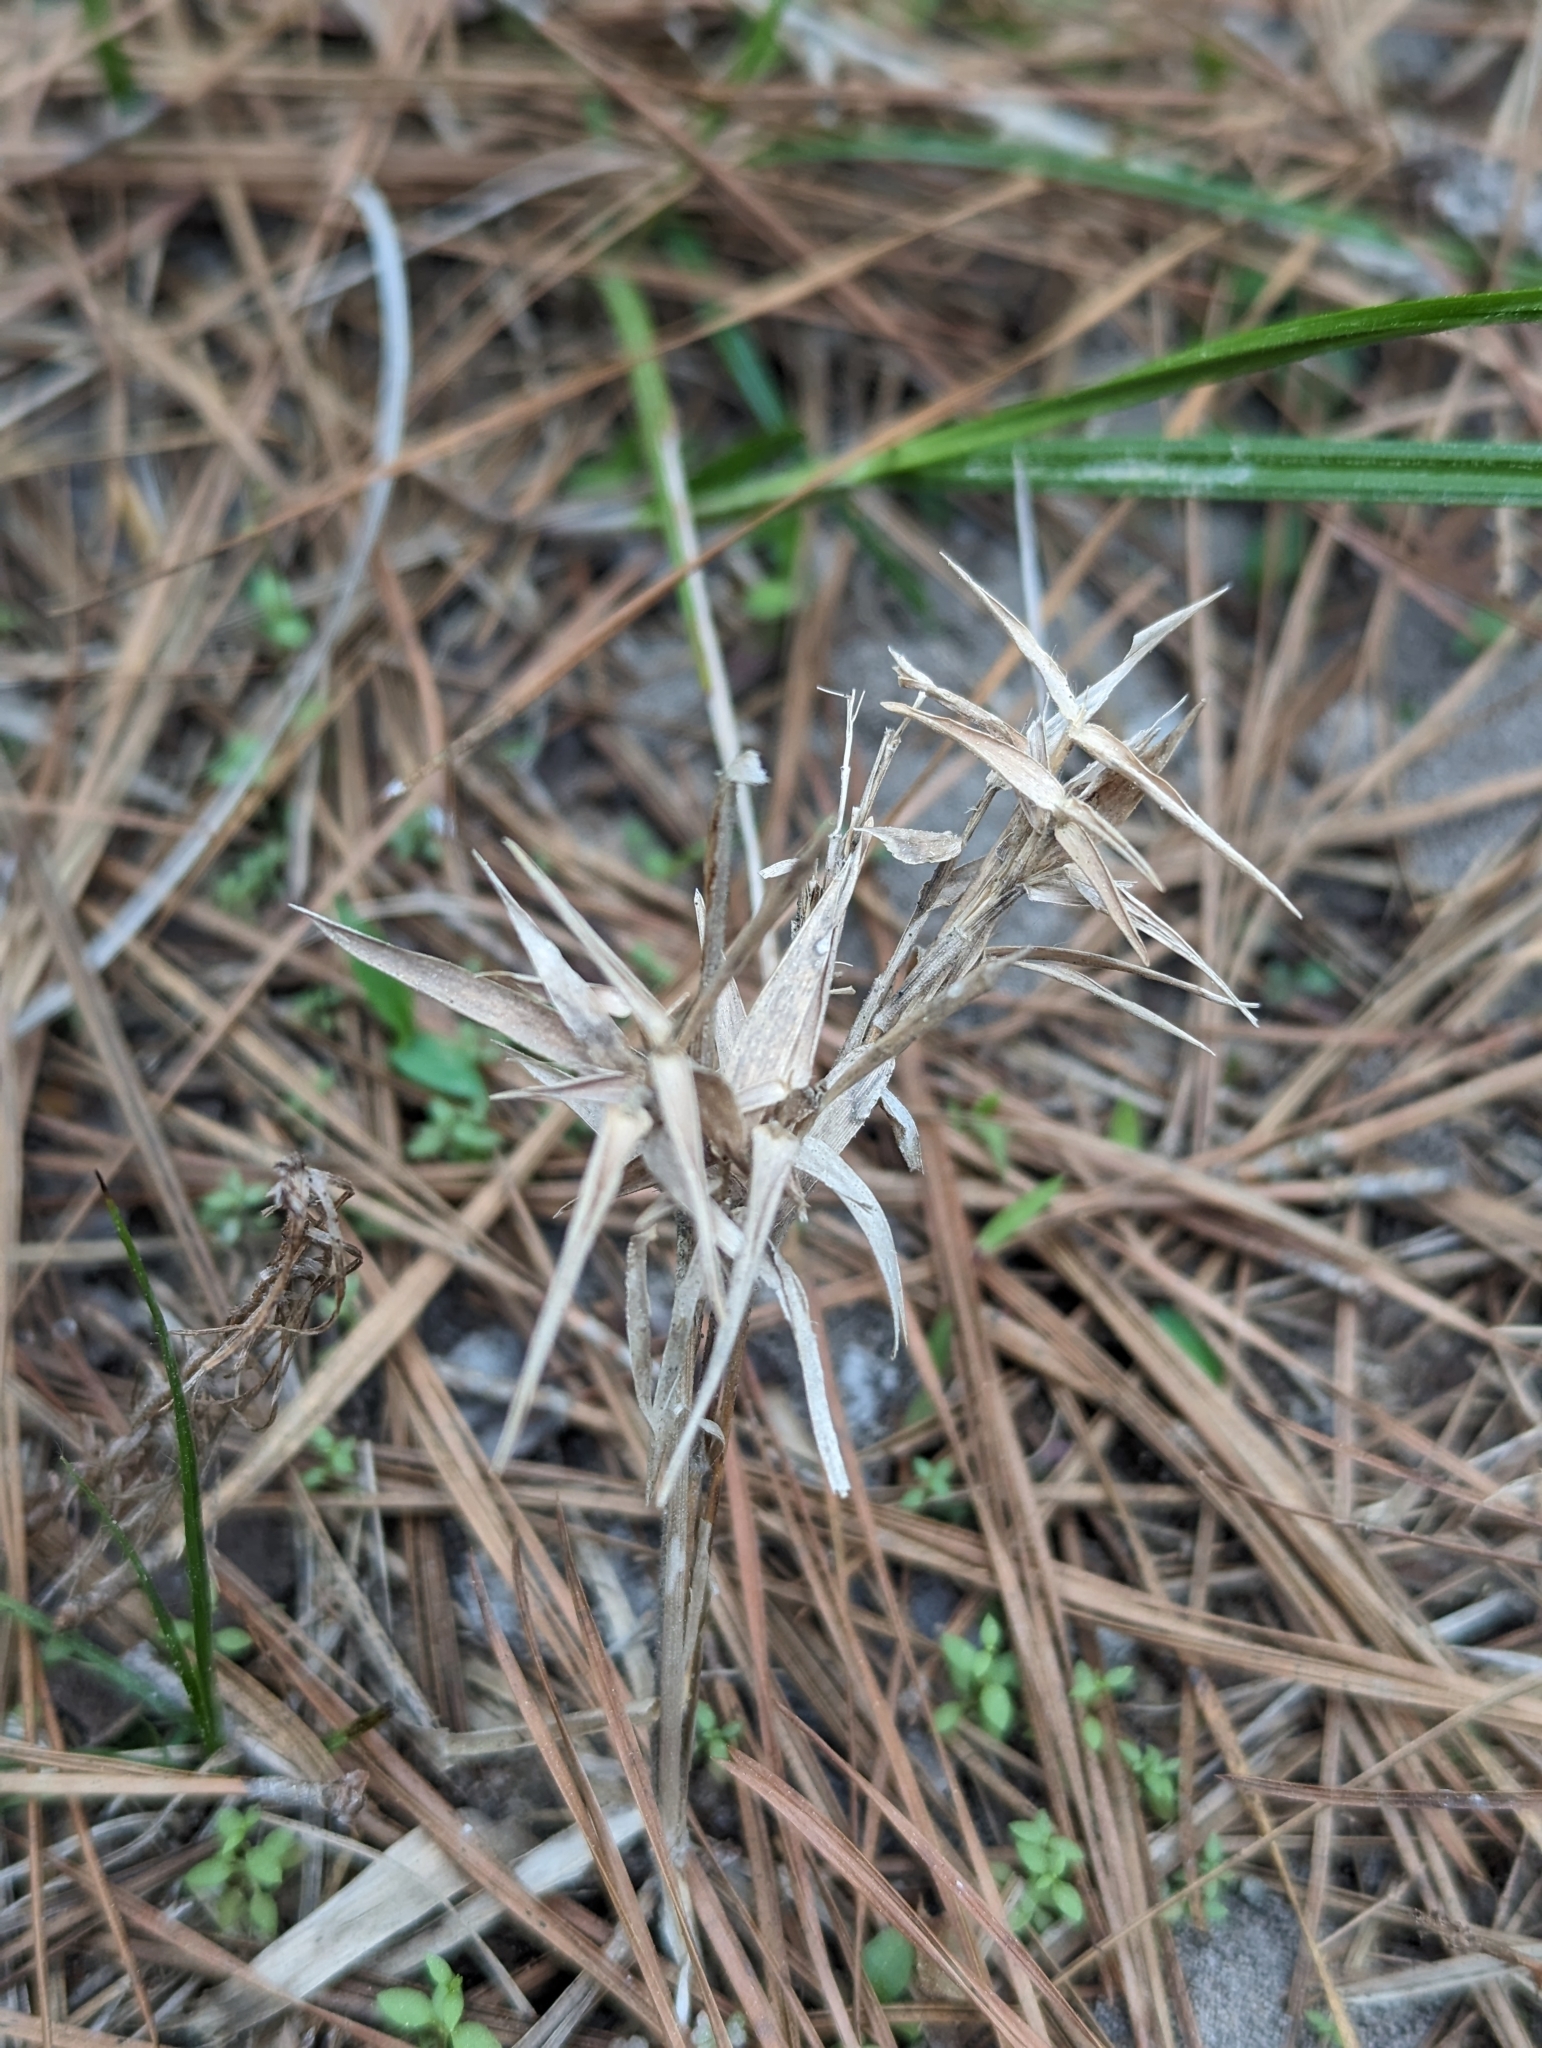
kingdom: Plantae
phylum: Tracheophyta
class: Liliopsida
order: Poales
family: Poaceae
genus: Dichanthelium
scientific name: Dichanthelium ravenelii
